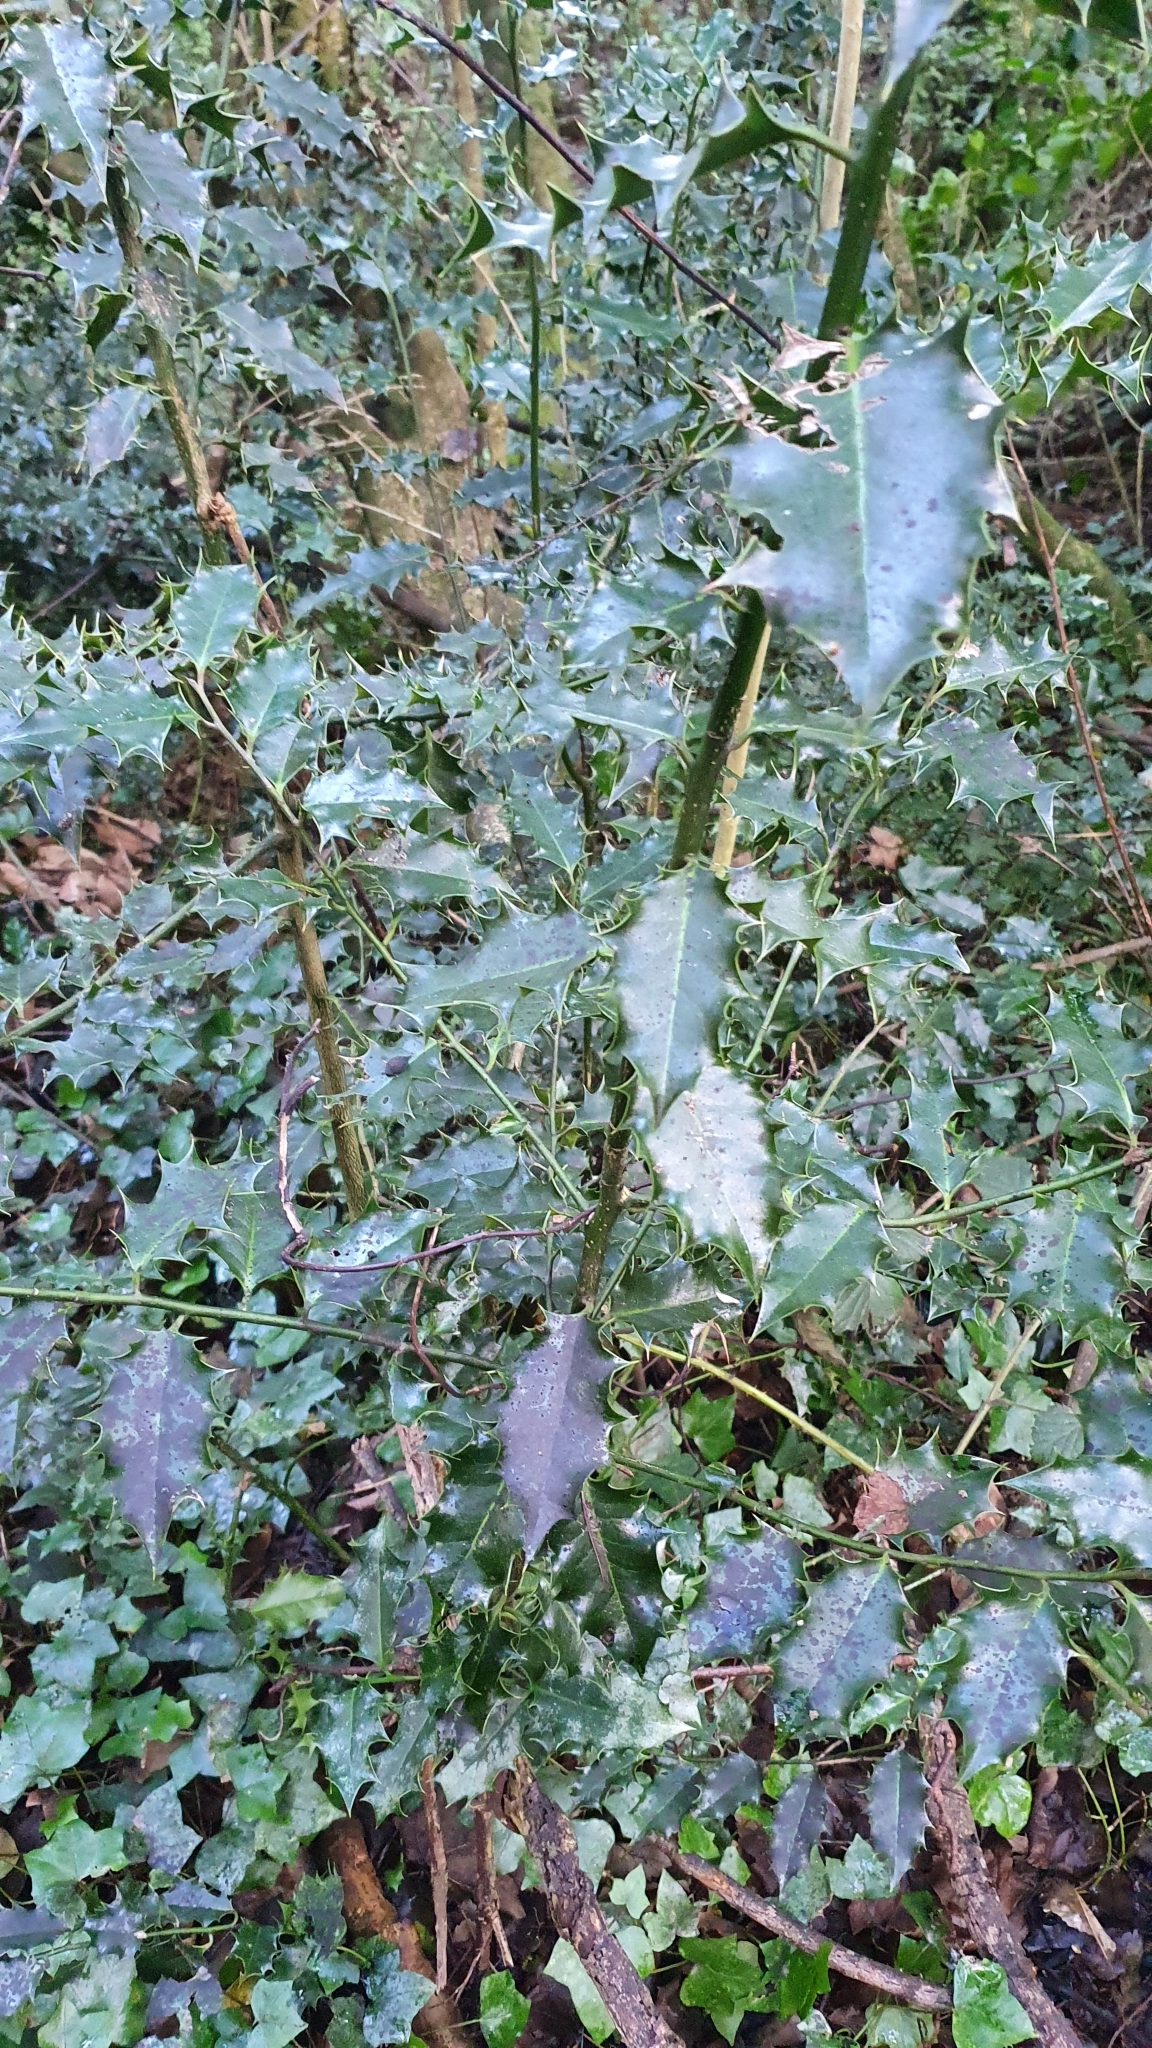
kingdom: Plantae
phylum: Tracheophyta
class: Magnoliopsida
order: Aquifoliales
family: Aquifoliaceae
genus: Ilex
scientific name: Ilex aquifolium
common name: English holly
